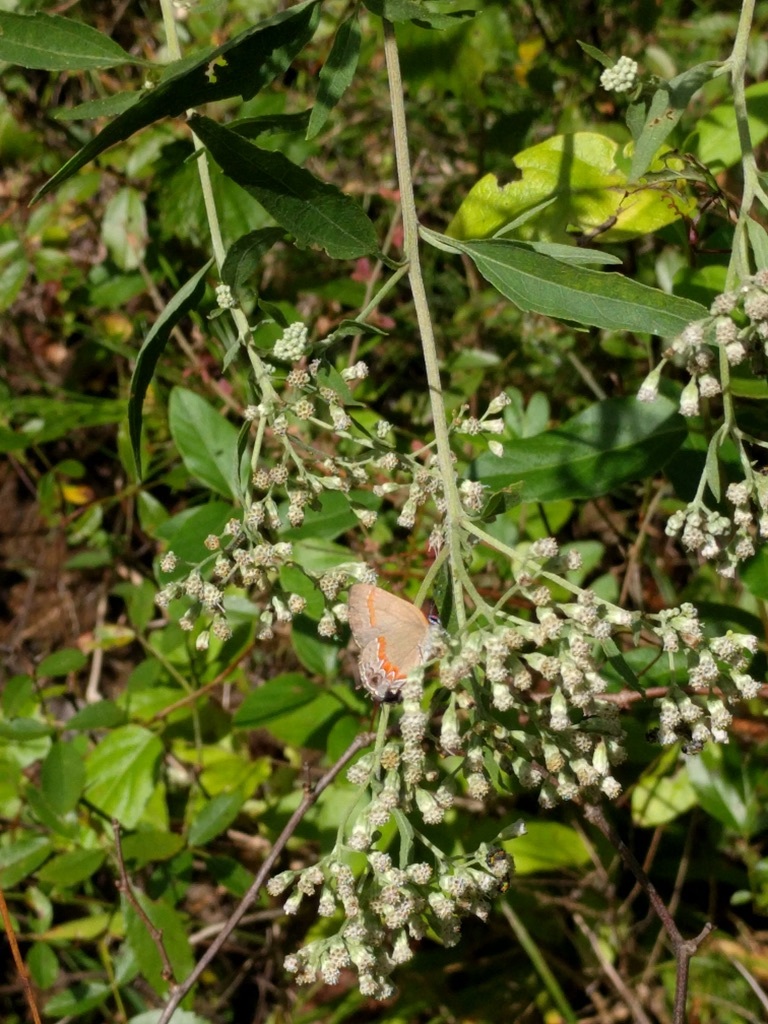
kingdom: Animalia
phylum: Arthropoda
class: Insecta
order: Lepidoptera
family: Lycaenidae
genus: Calycopis
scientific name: Calycopis cecrops
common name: Red-banded hairstreak
